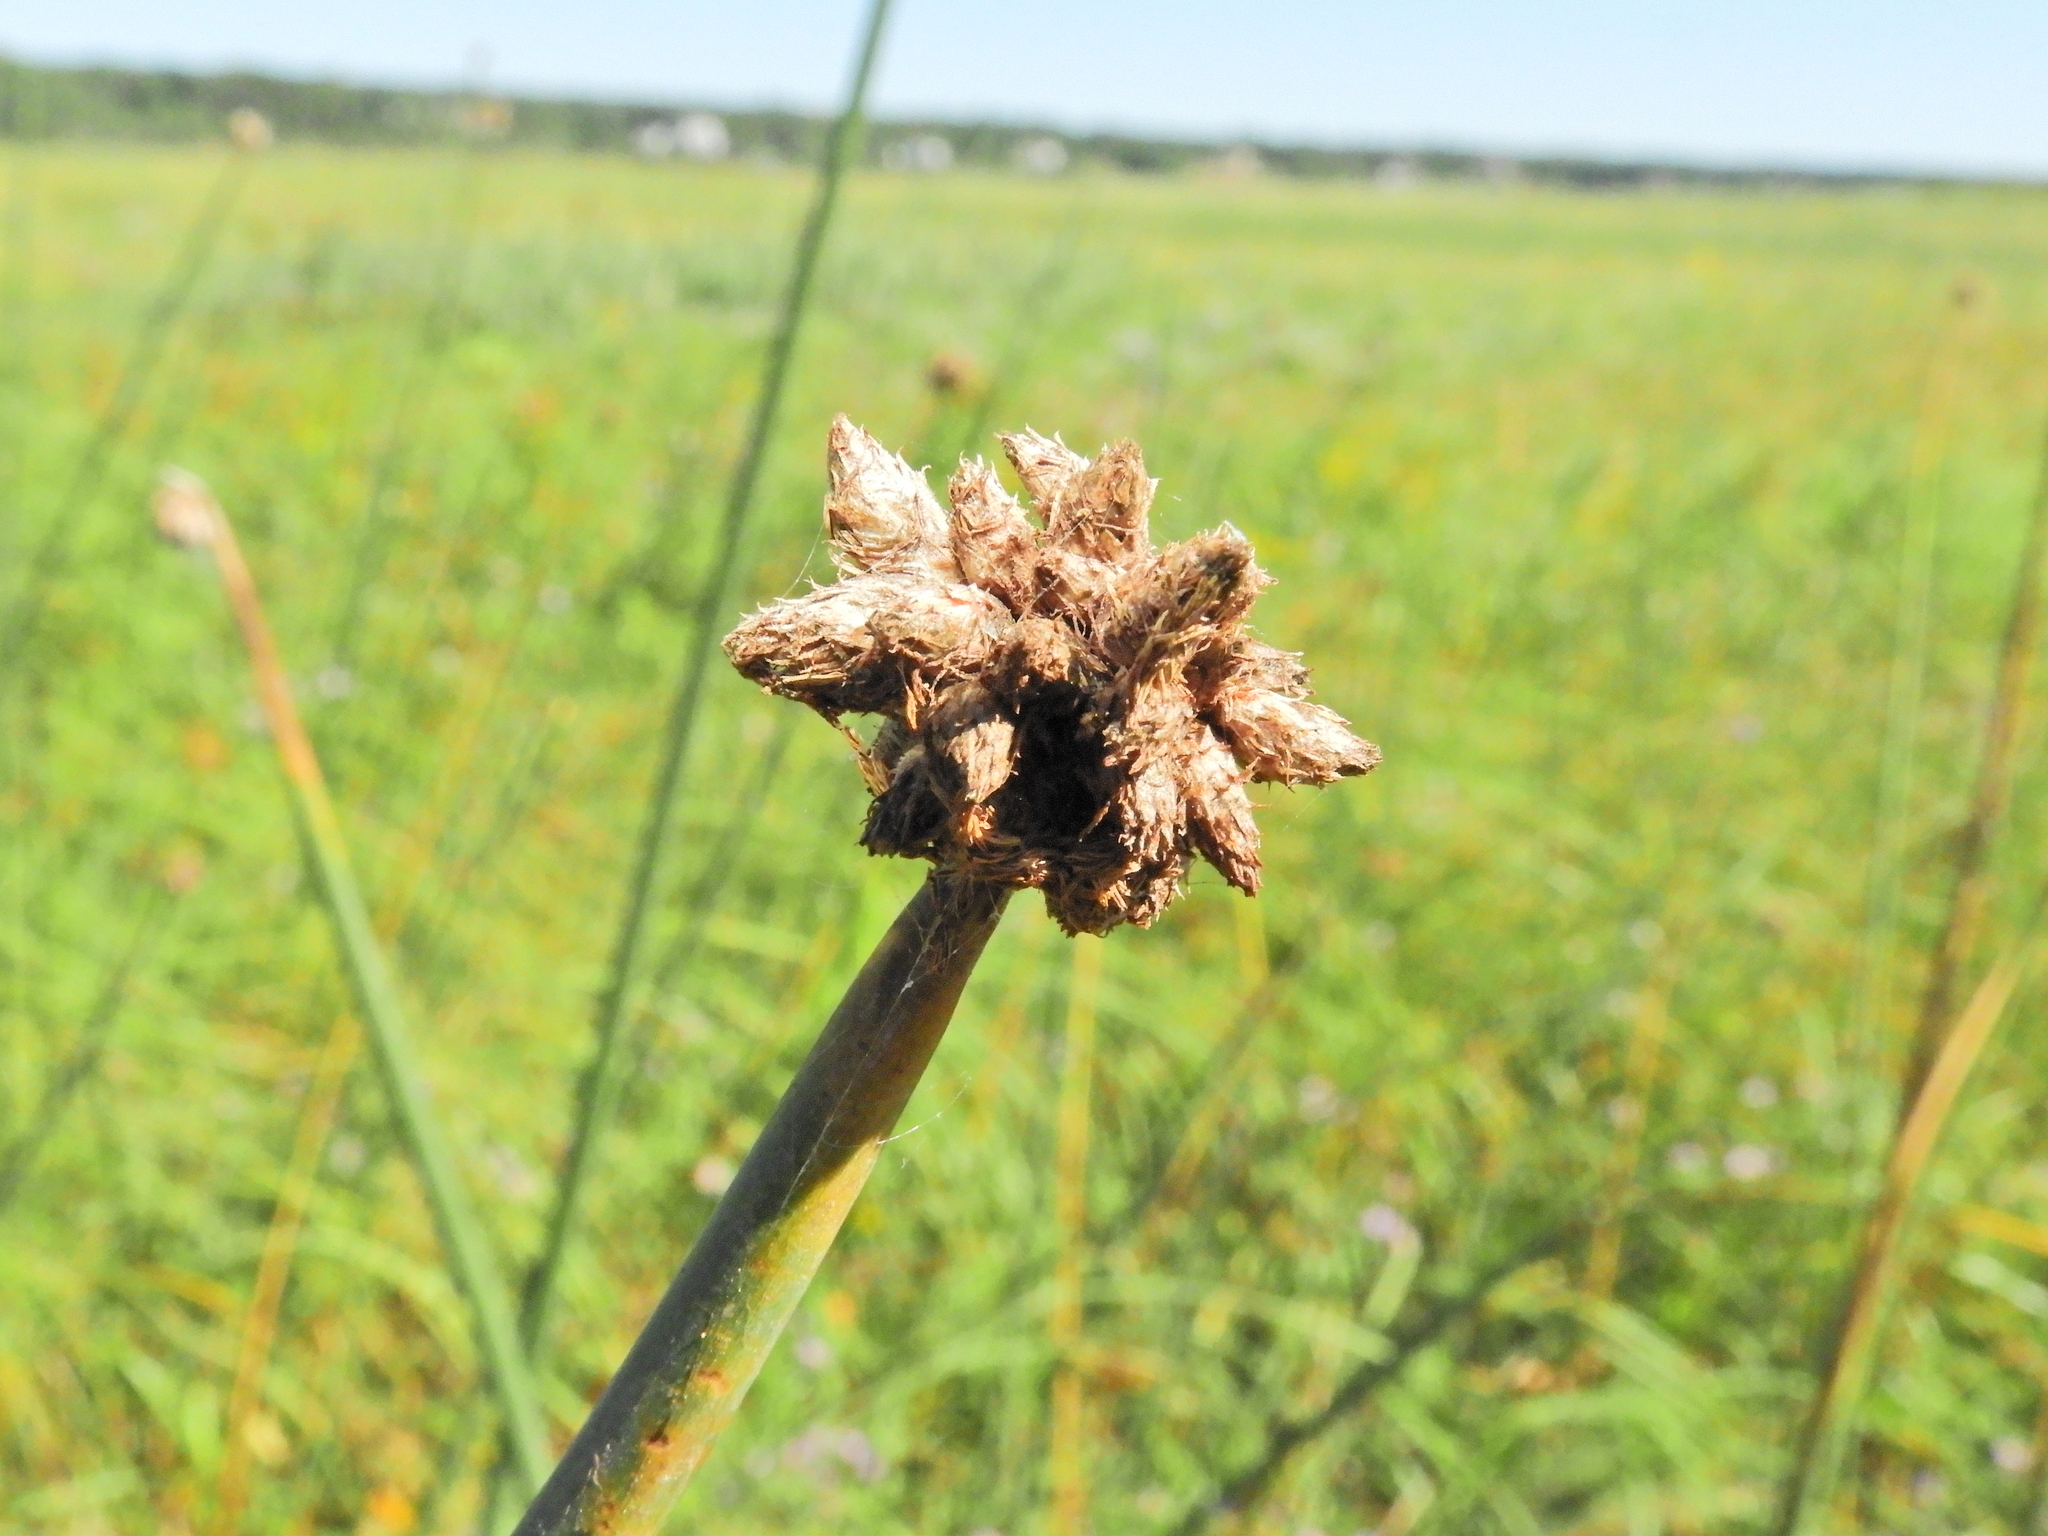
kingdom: Plantae
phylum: Tracheophyta
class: Liliopsida
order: Poales
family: Cyperaceae
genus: Schoenoplectus
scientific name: Schoenoplectus acutus
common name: Hardstem bulrush
